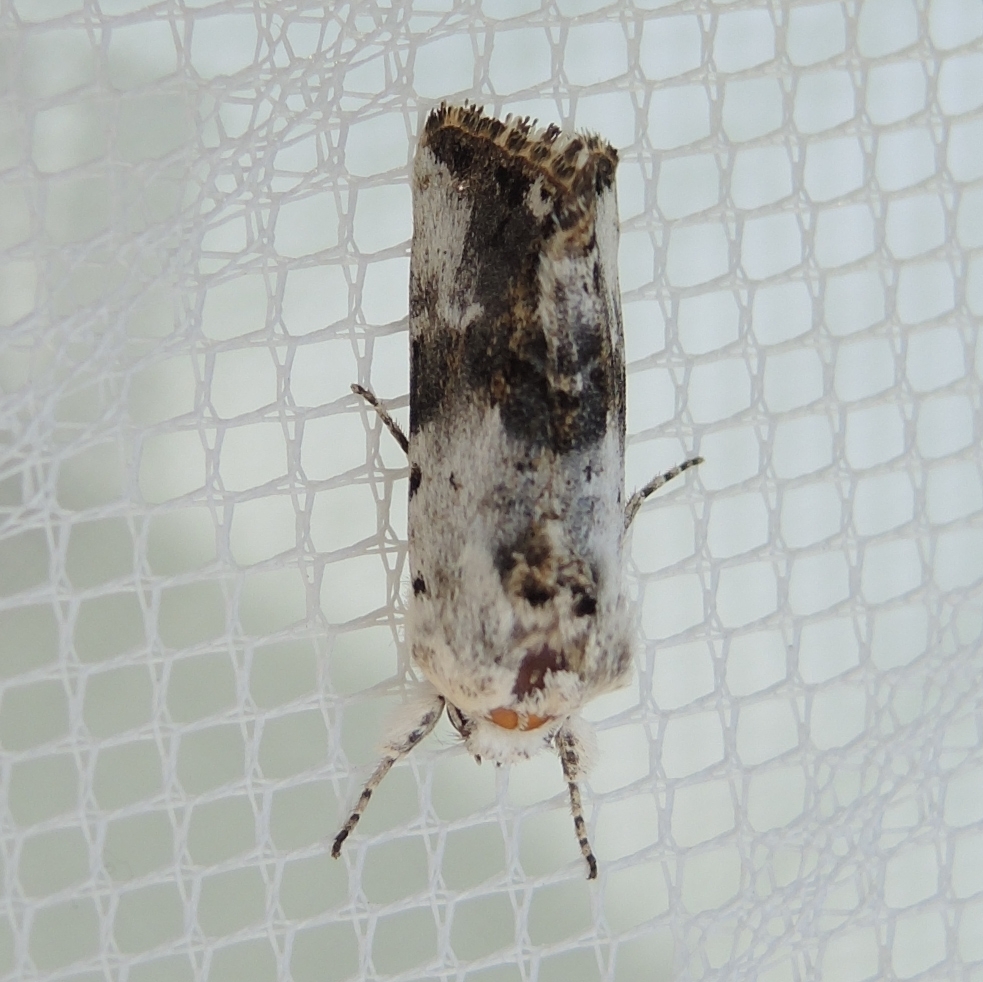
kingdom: Animalia
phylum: Arthropoda
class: Insecta
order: Lepidoptera
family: Noctuidae
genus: Calophasia
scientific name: Calophasia opalina
